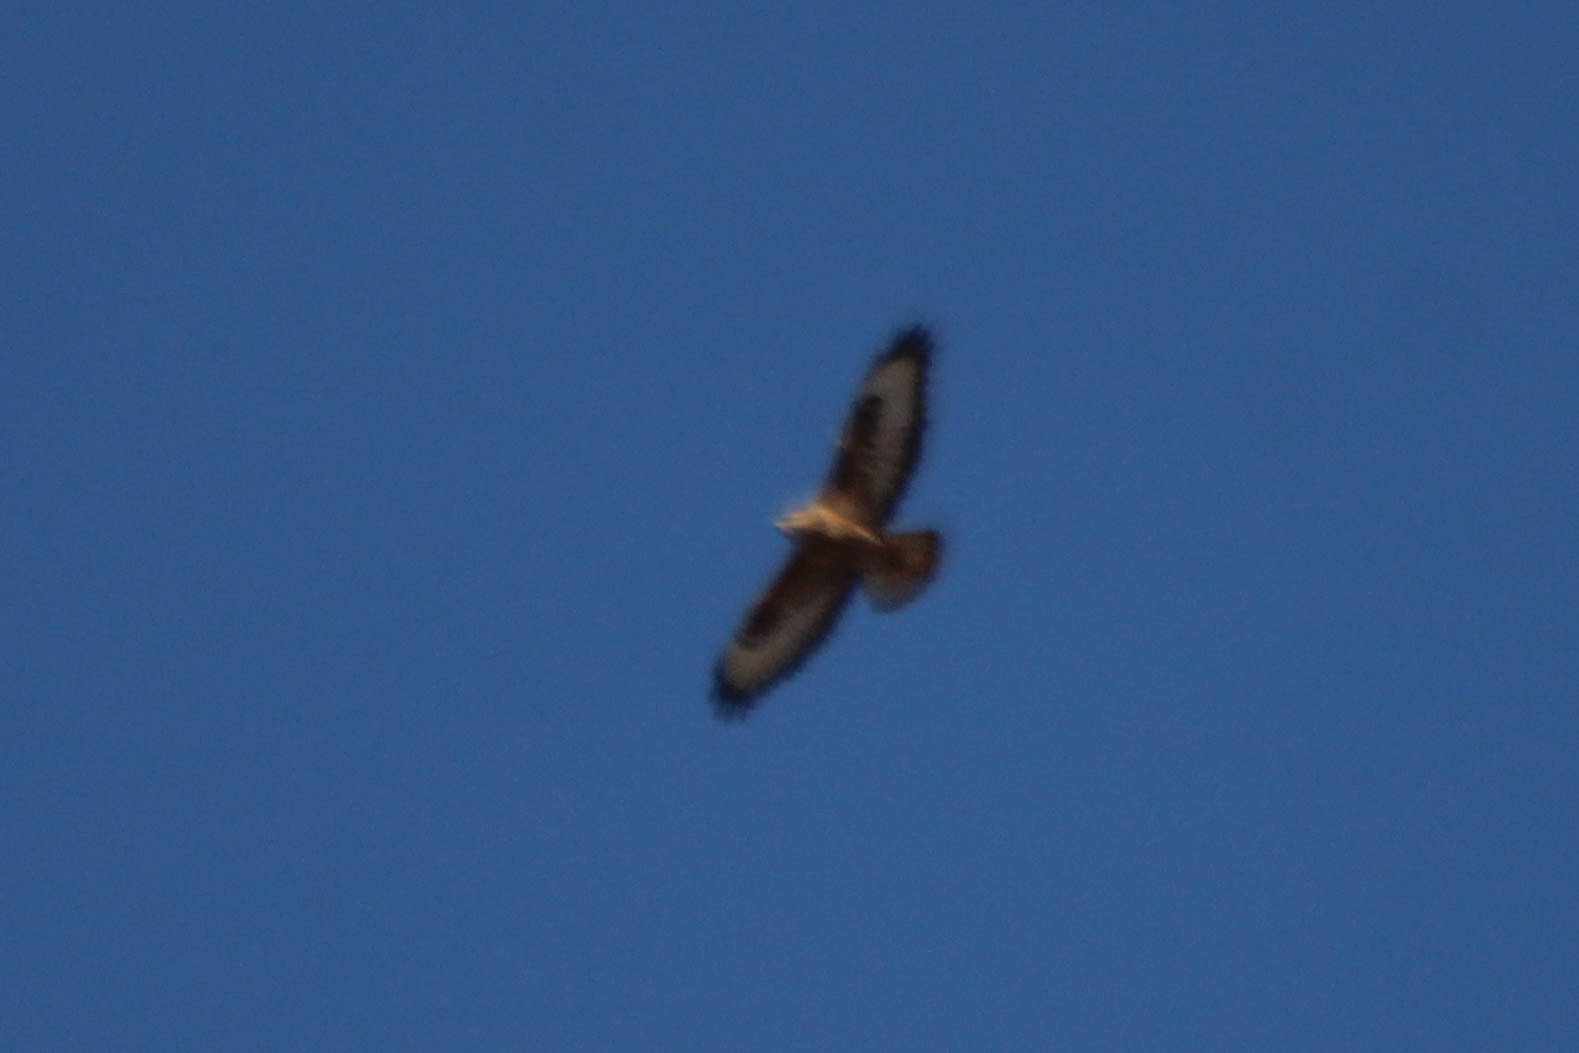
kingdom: Animalia
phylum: Chordata
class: Aves
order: Accipitriformes
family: Accipitridae
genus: Buteo
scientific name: Buteo buteo
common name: Common buzzard
